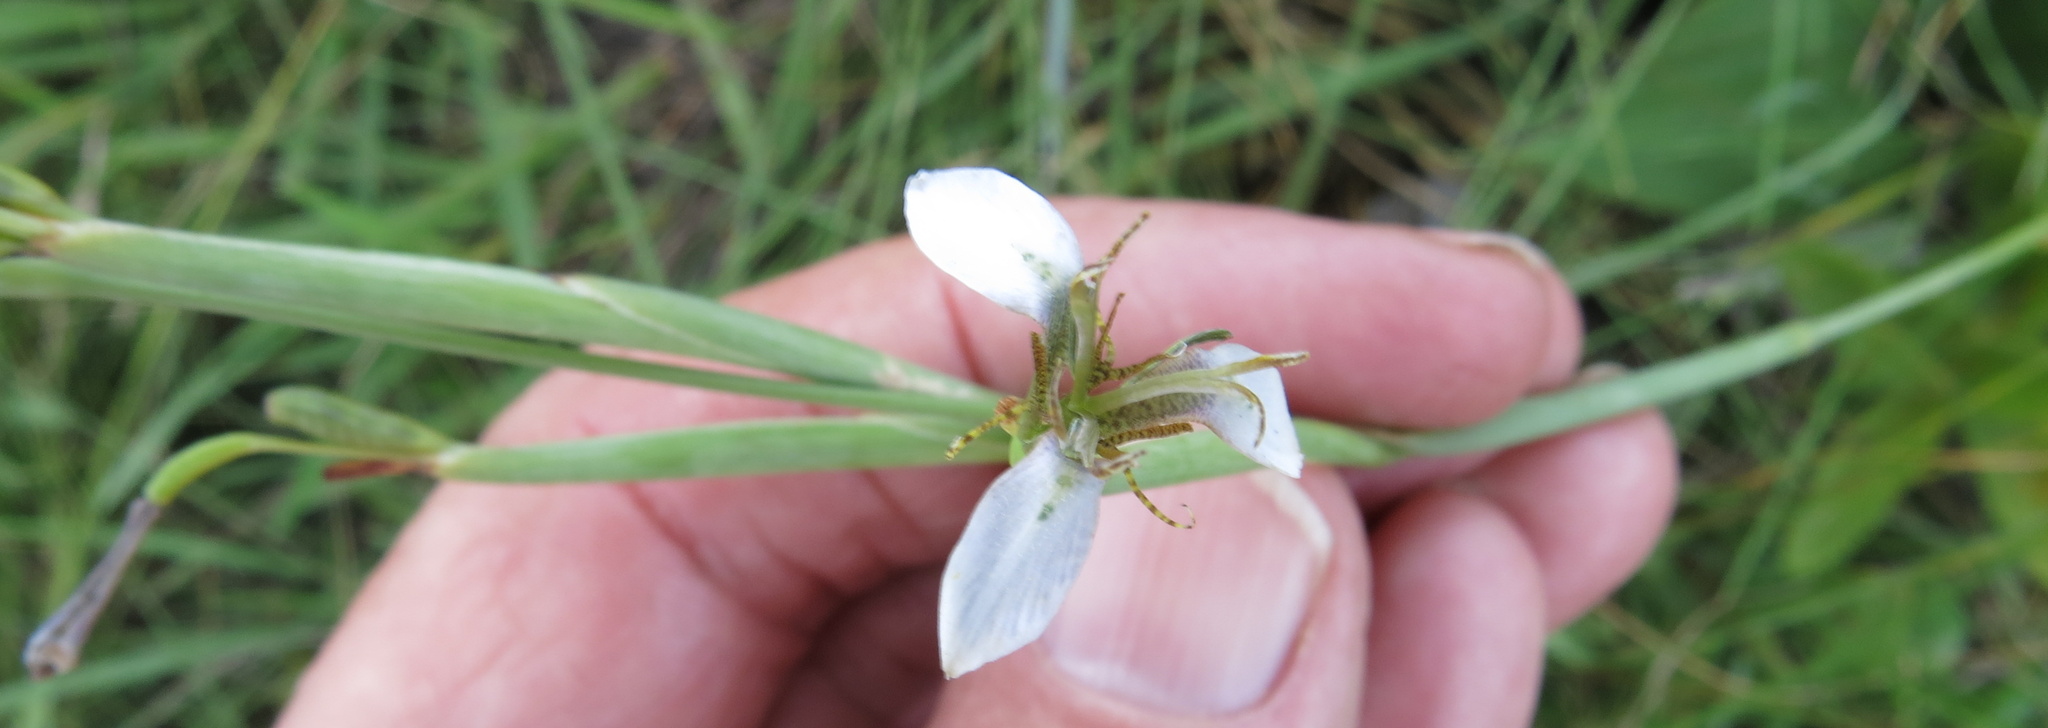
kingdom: Plantae
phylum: Tracheophyta
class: Liliopsida
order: Asparagales
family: Iridaceae
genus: Moraea
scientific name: Moraea brevistyla
